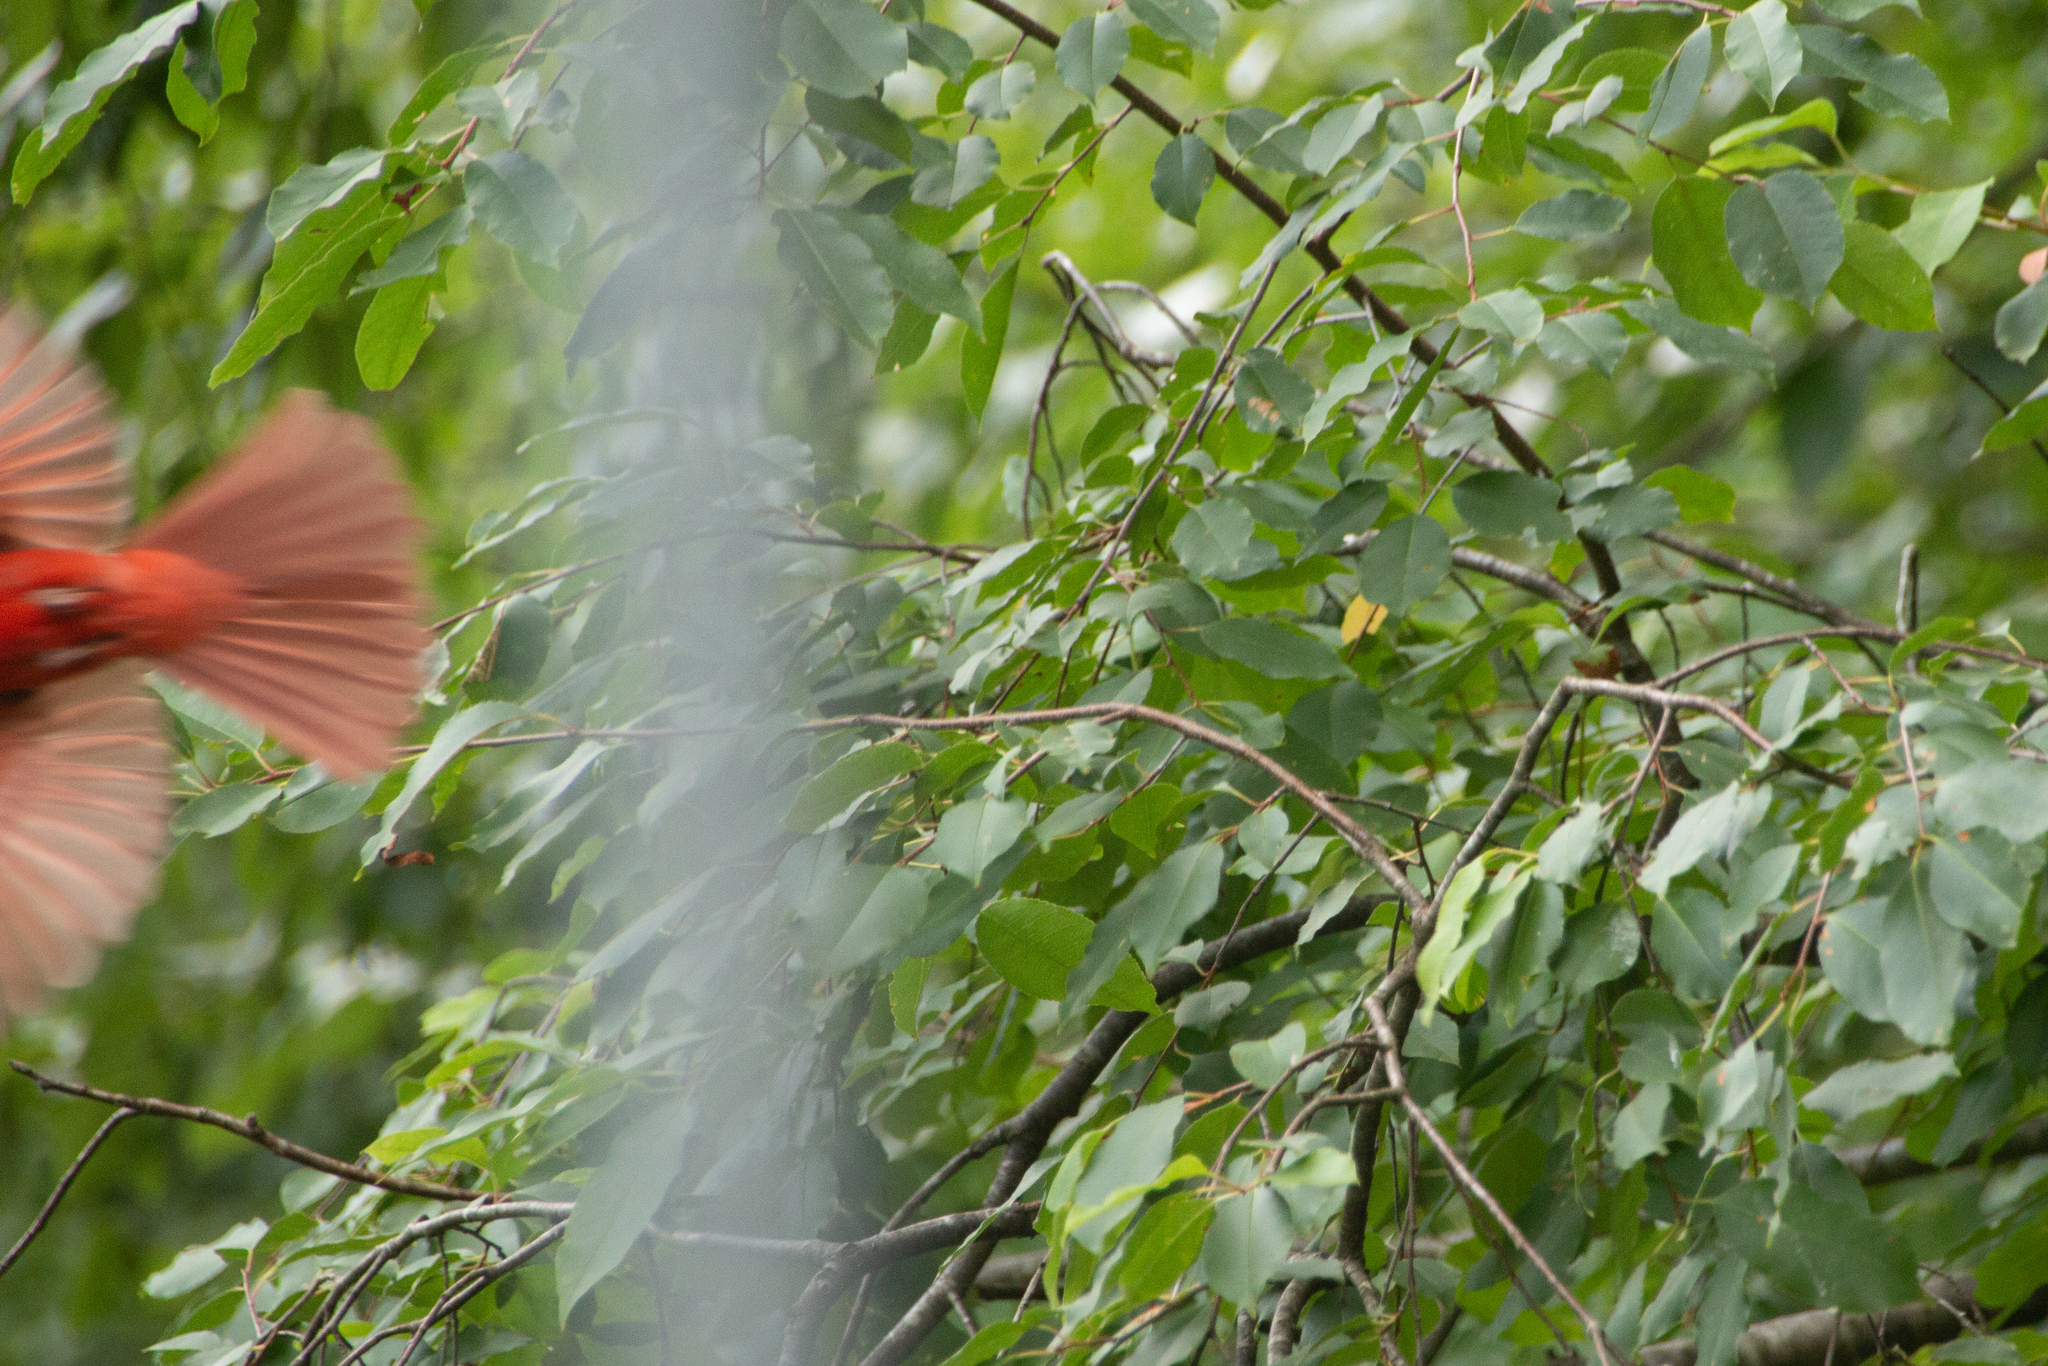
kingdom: Animalia
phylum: Chordata
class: Aves
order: Passeriformes
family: Cardinalidae
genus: Cardinalis
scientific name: Cardinalis cardinalis
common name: Northern cardinal
